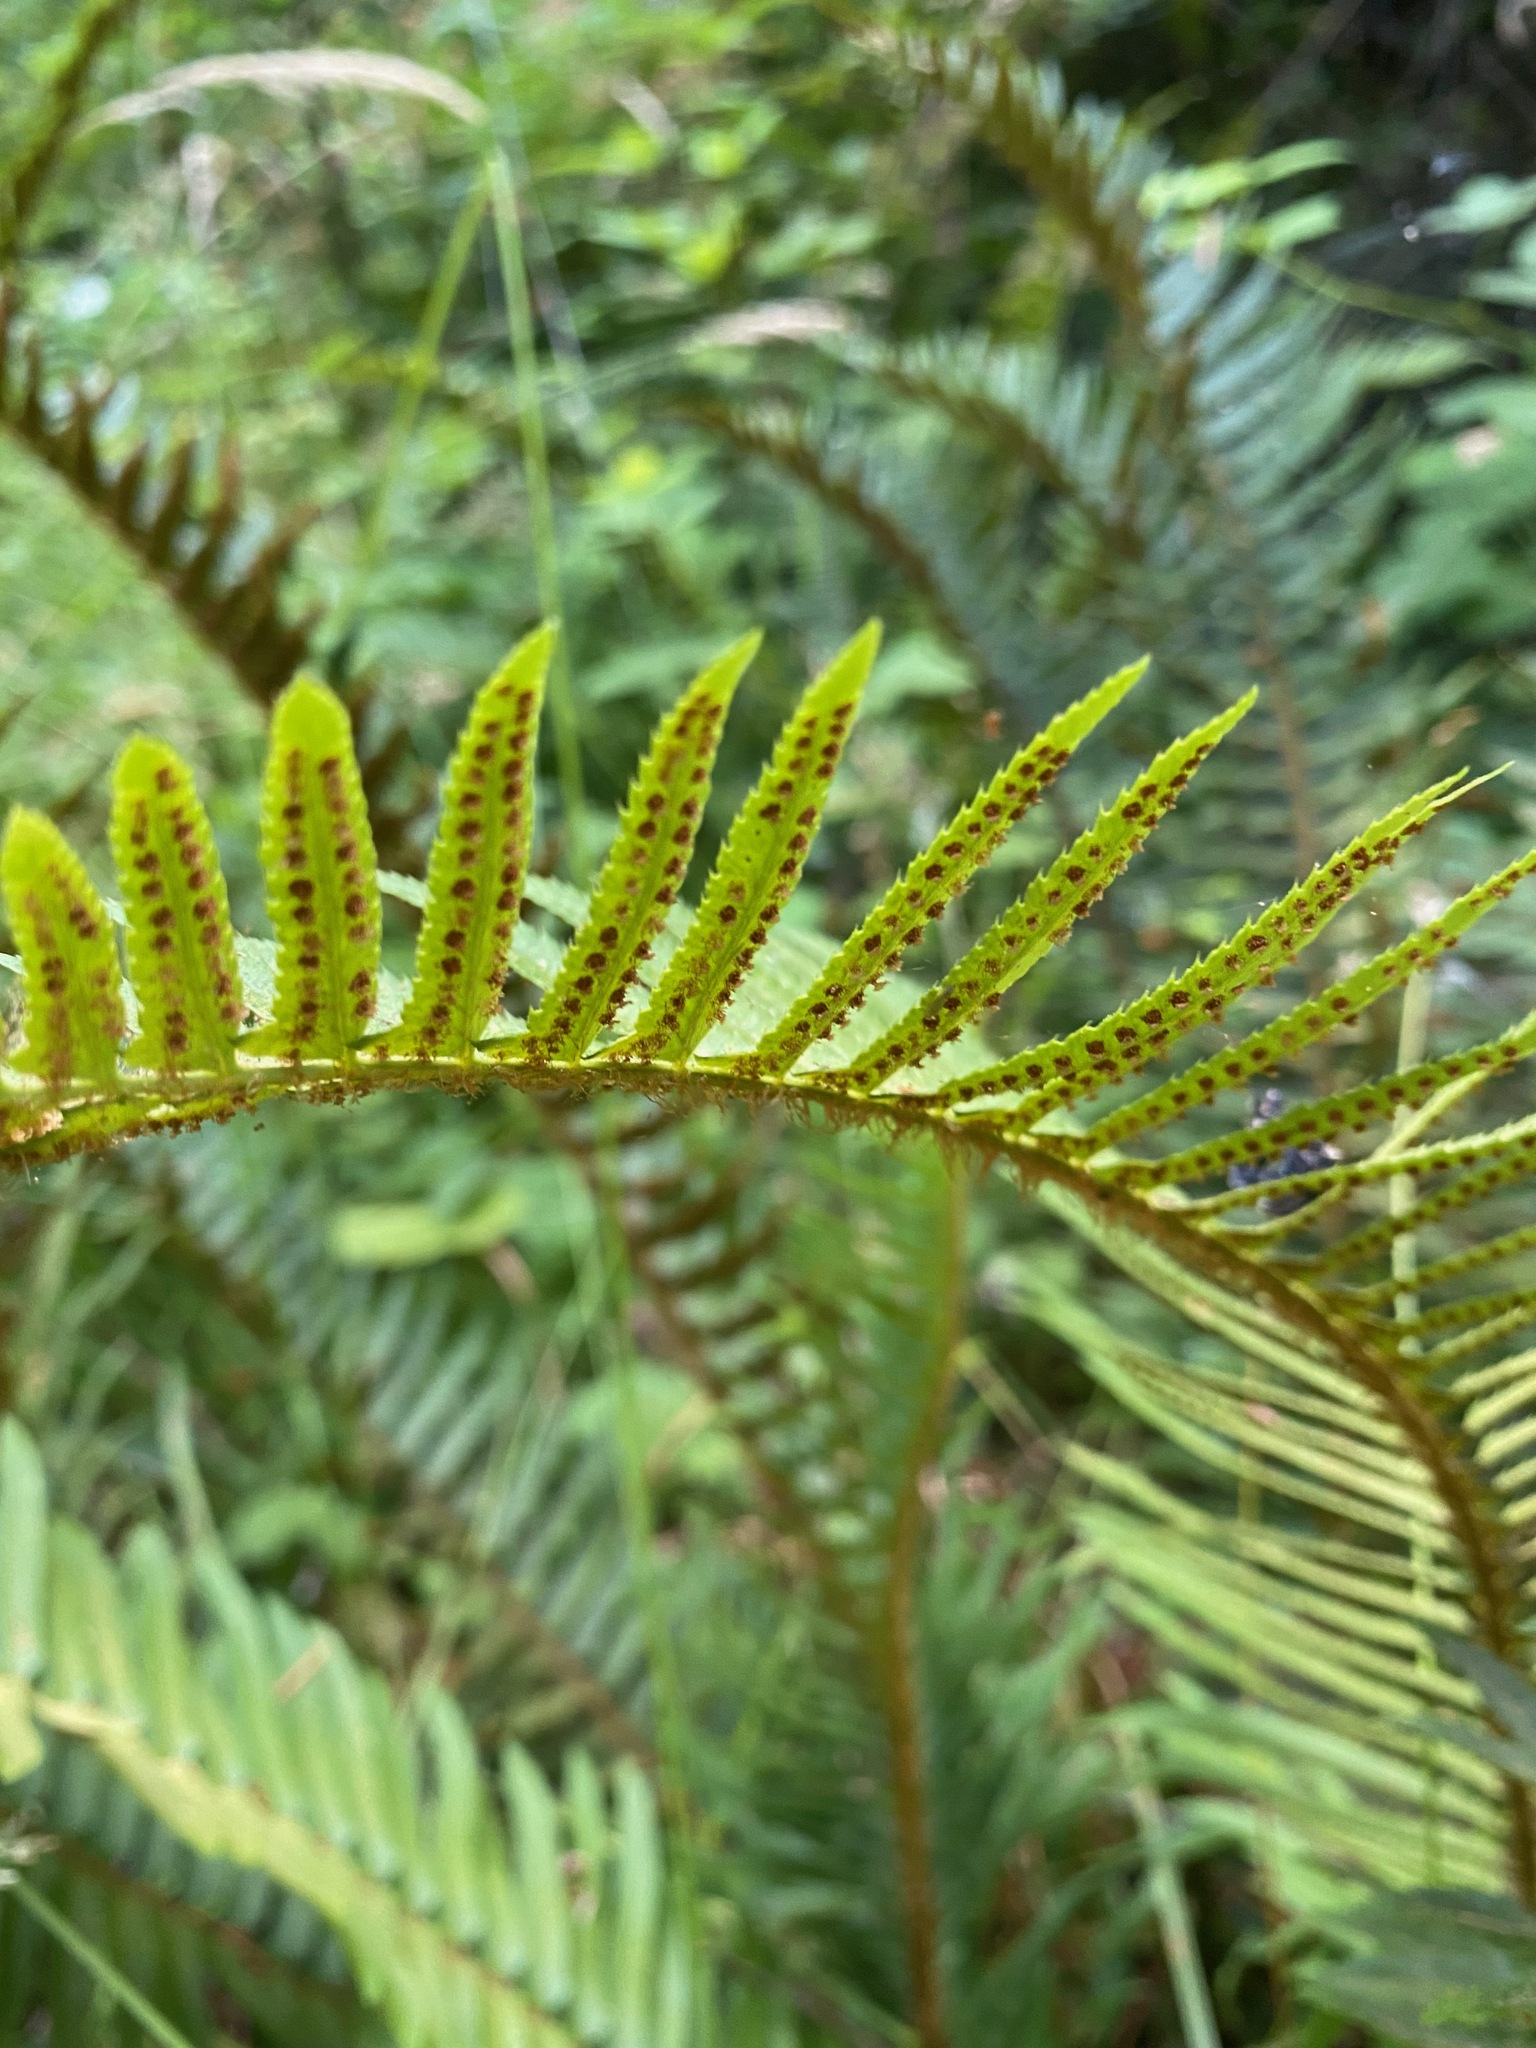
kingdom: Plantae
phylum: Tracheophyta
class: Polypodiopsida
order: Polypodiales
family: Dryopteridaceae
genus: Polystichum
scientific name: Polystichum munitum
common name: Western sword-fern
